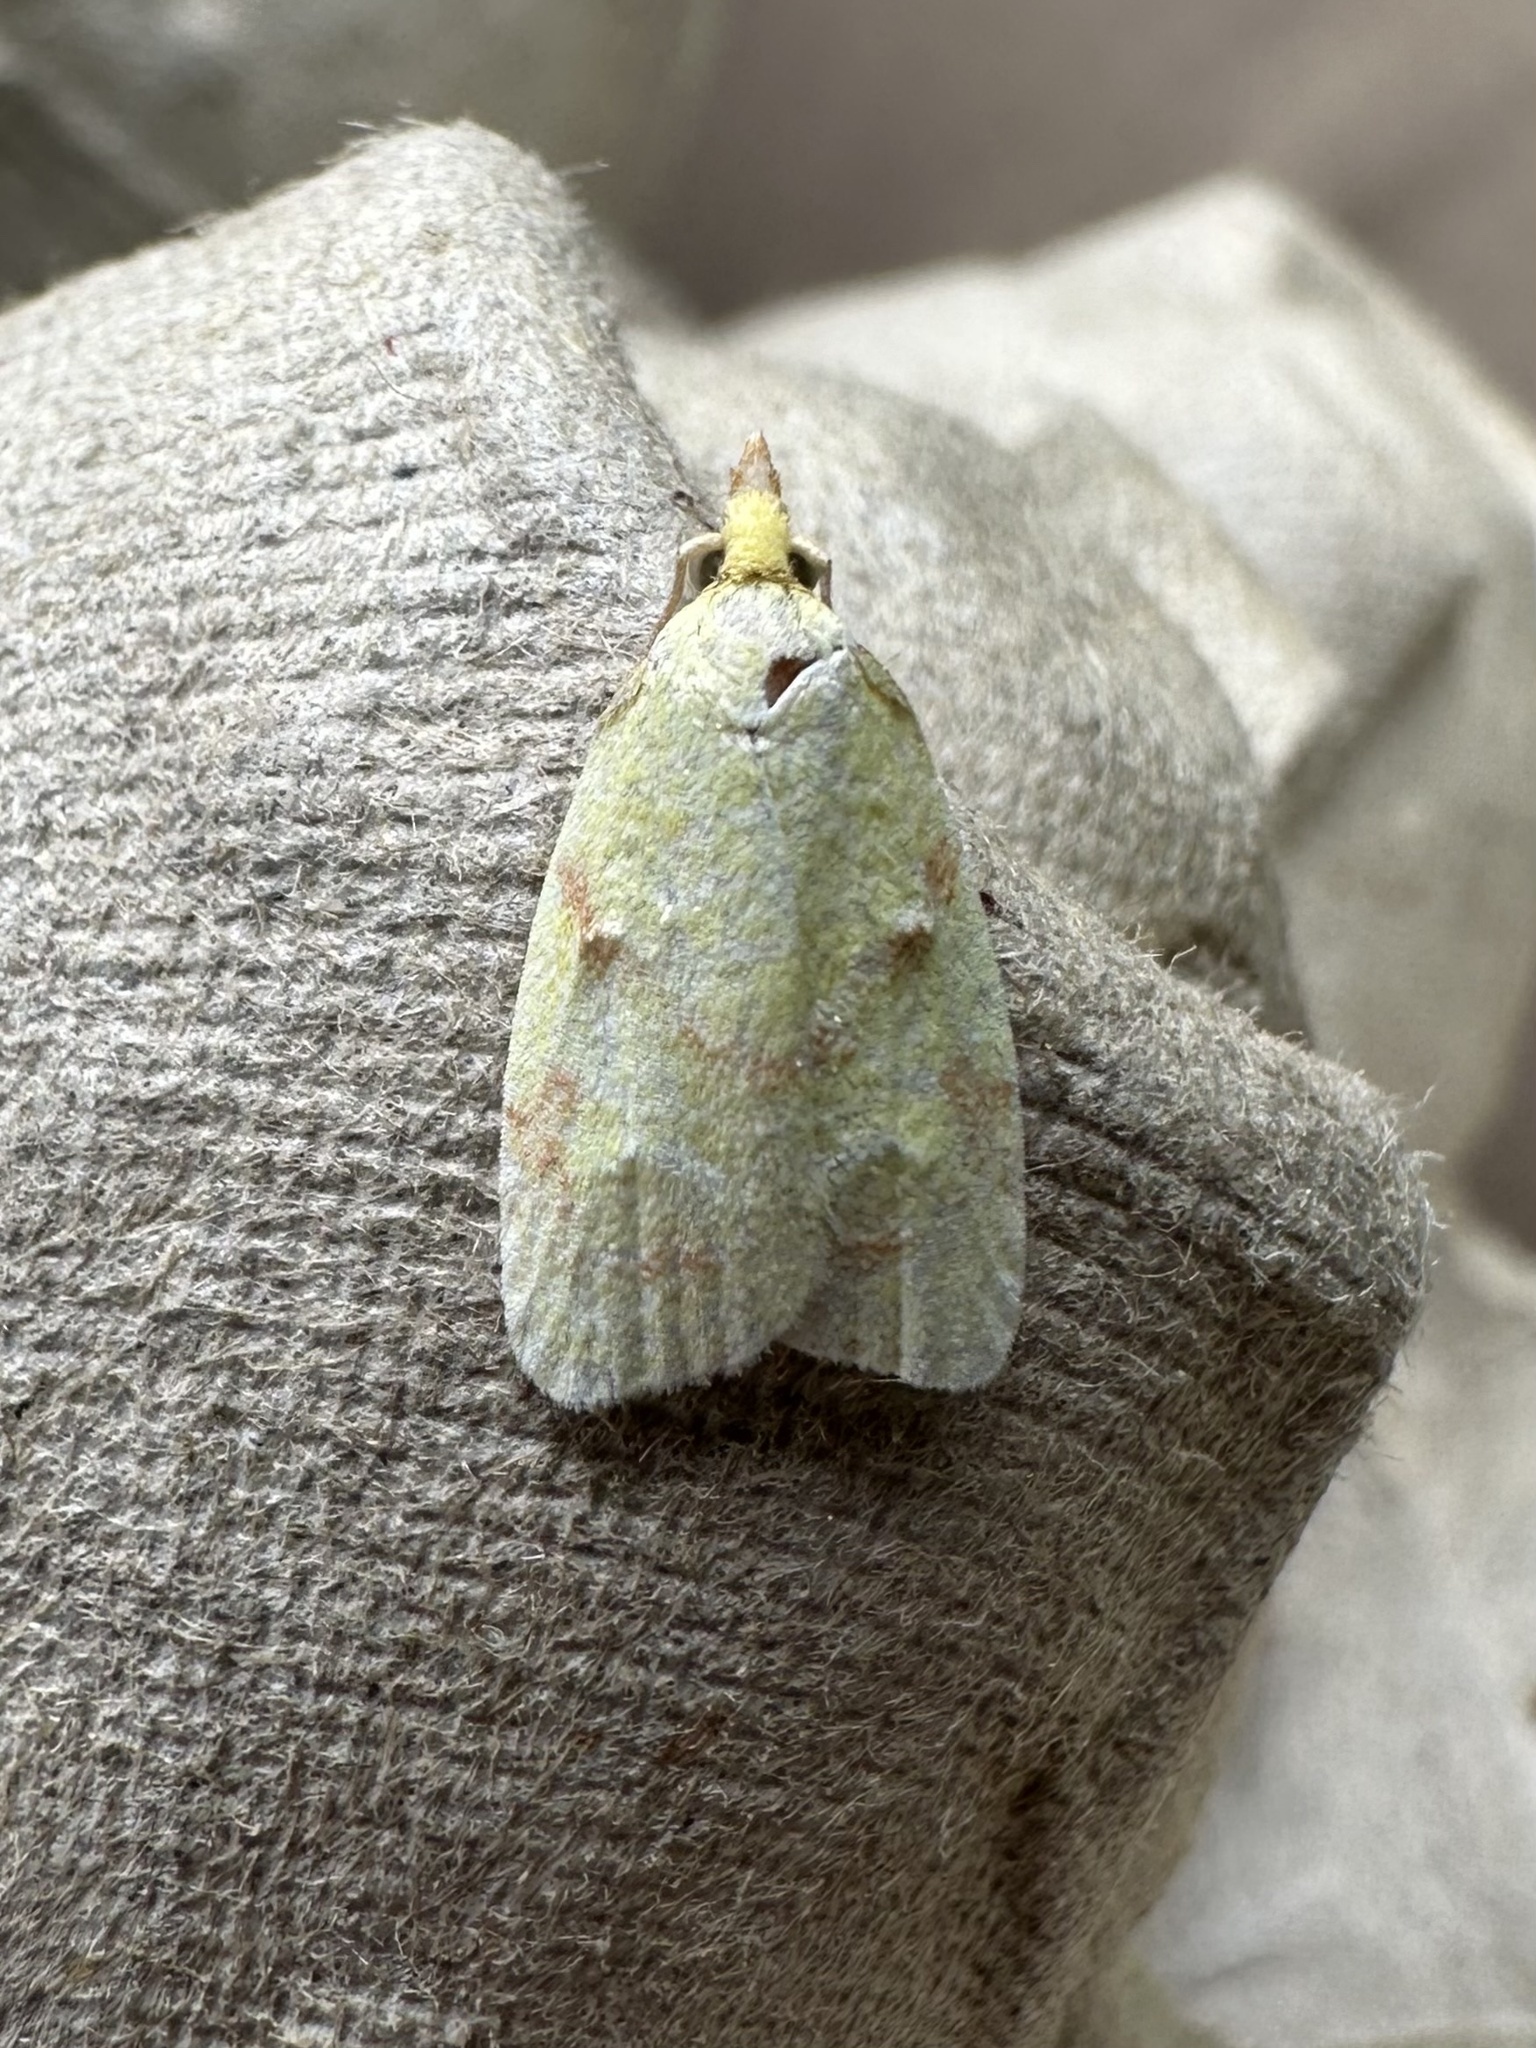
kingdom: Animalia
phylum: Arthropoda
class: Insecta
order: Lepidoptera
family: Tortricidae
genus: Cenopis
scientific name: Cenopis pettitana
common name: Maple-basswood leafroller moth
